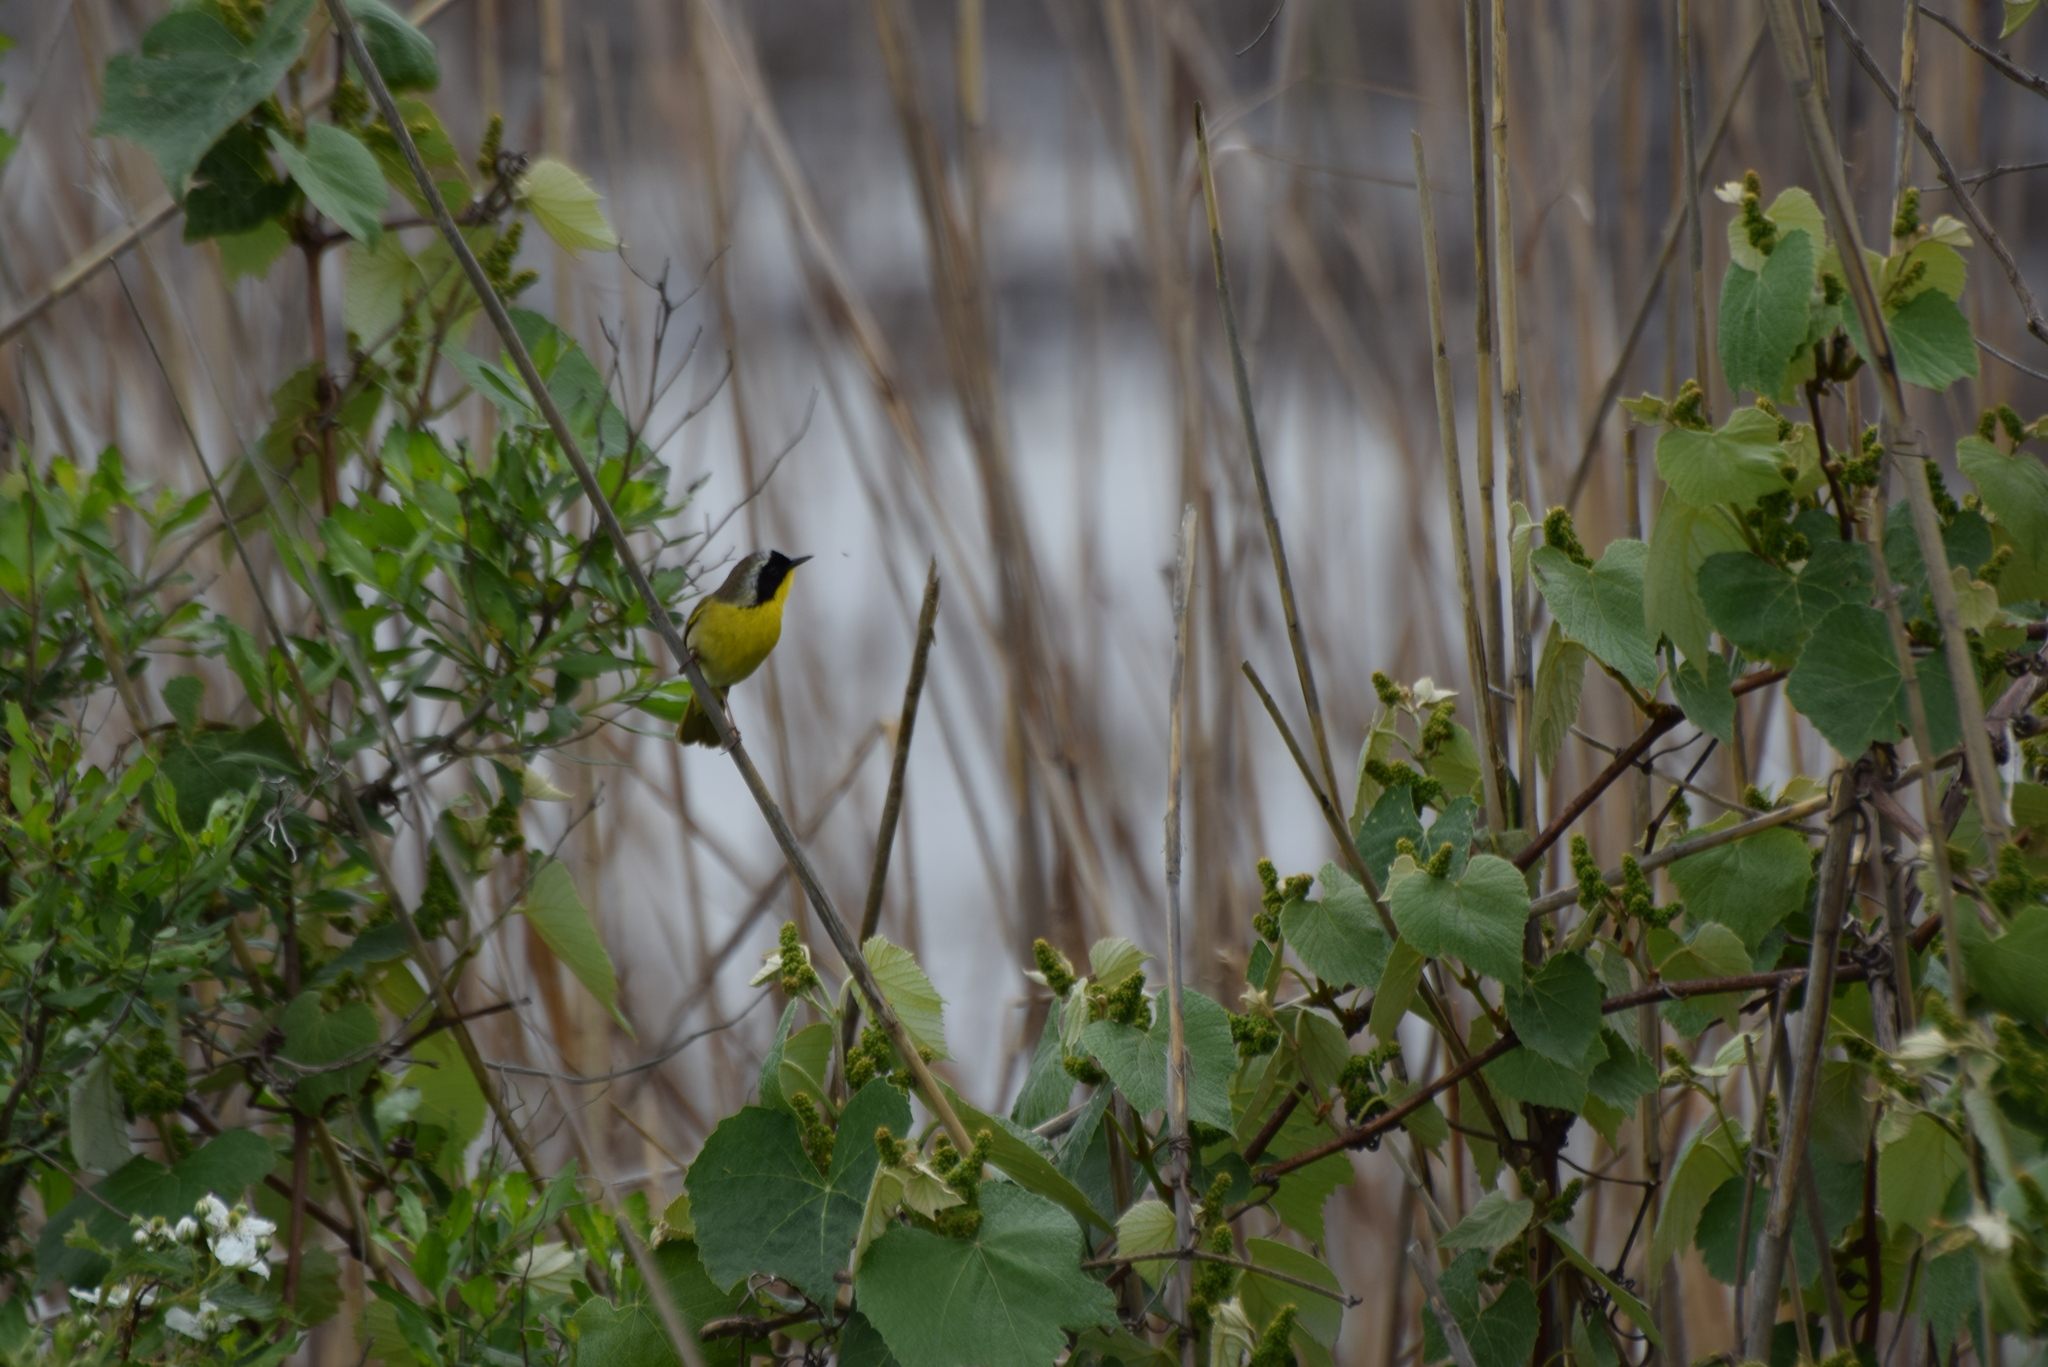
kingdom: Animalia
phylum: Chordata
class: Aves
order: Passeriformes
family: Parulidae
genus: Geothlypis
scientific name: Geothlypis trichas
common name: Common yellowthroat
